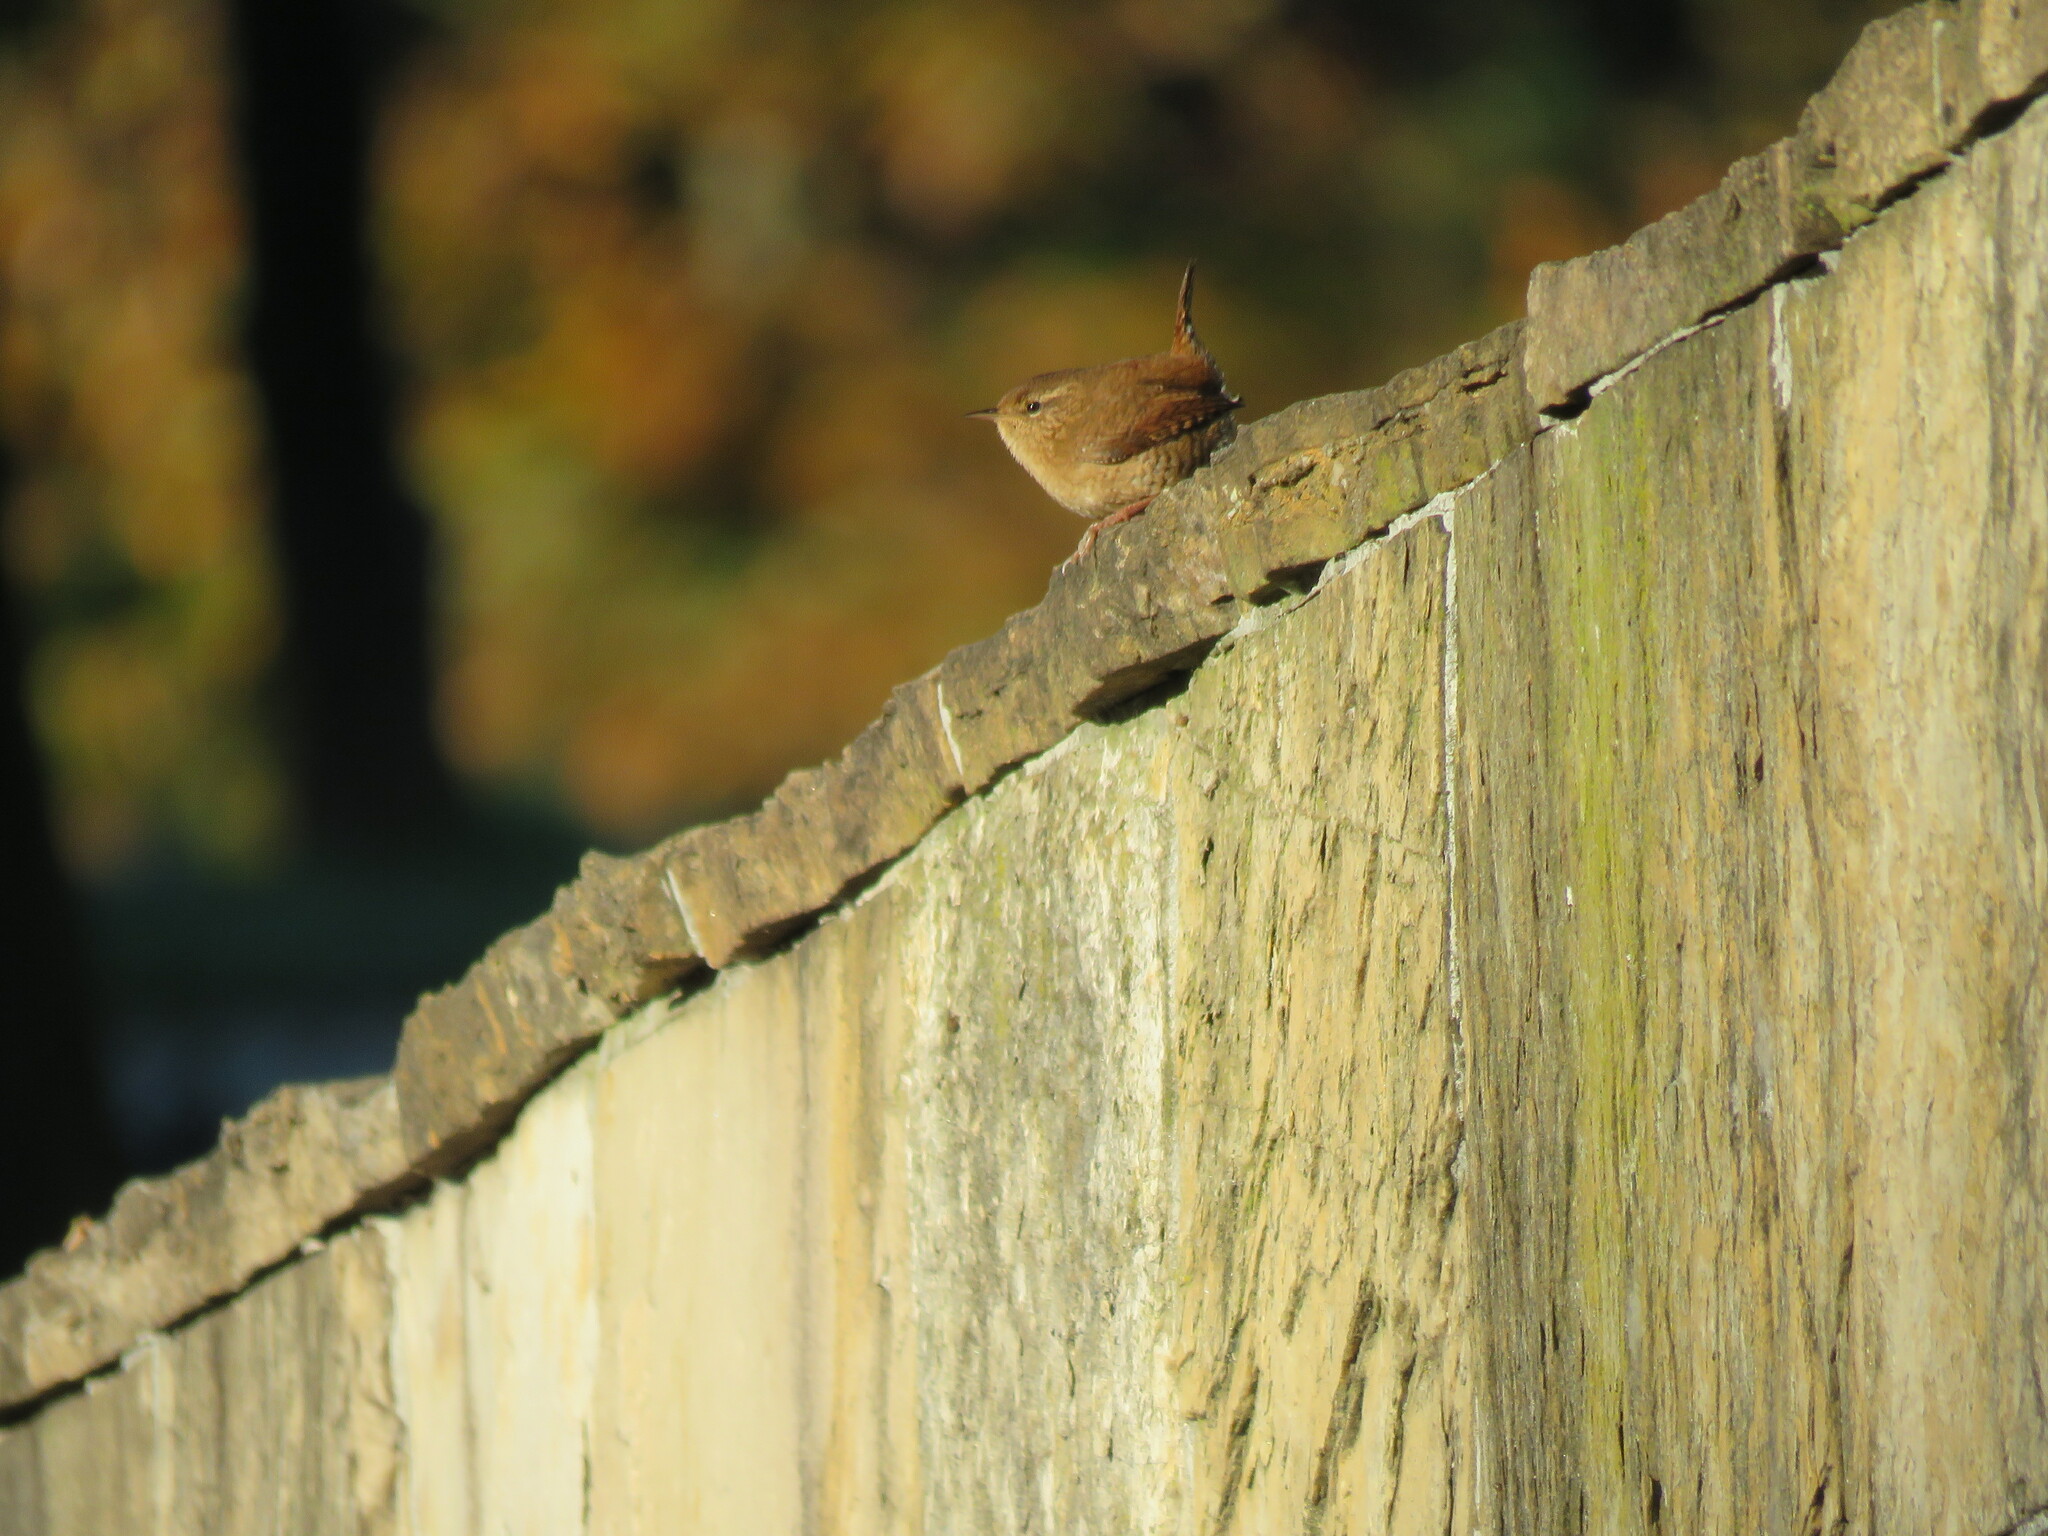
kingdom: Animalia
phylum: Chordata
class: Aves
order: Passeriformes
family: Troglodytidae
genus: Troglodytes
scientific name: Troglodytes troglodytes
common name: Eurasian wren
